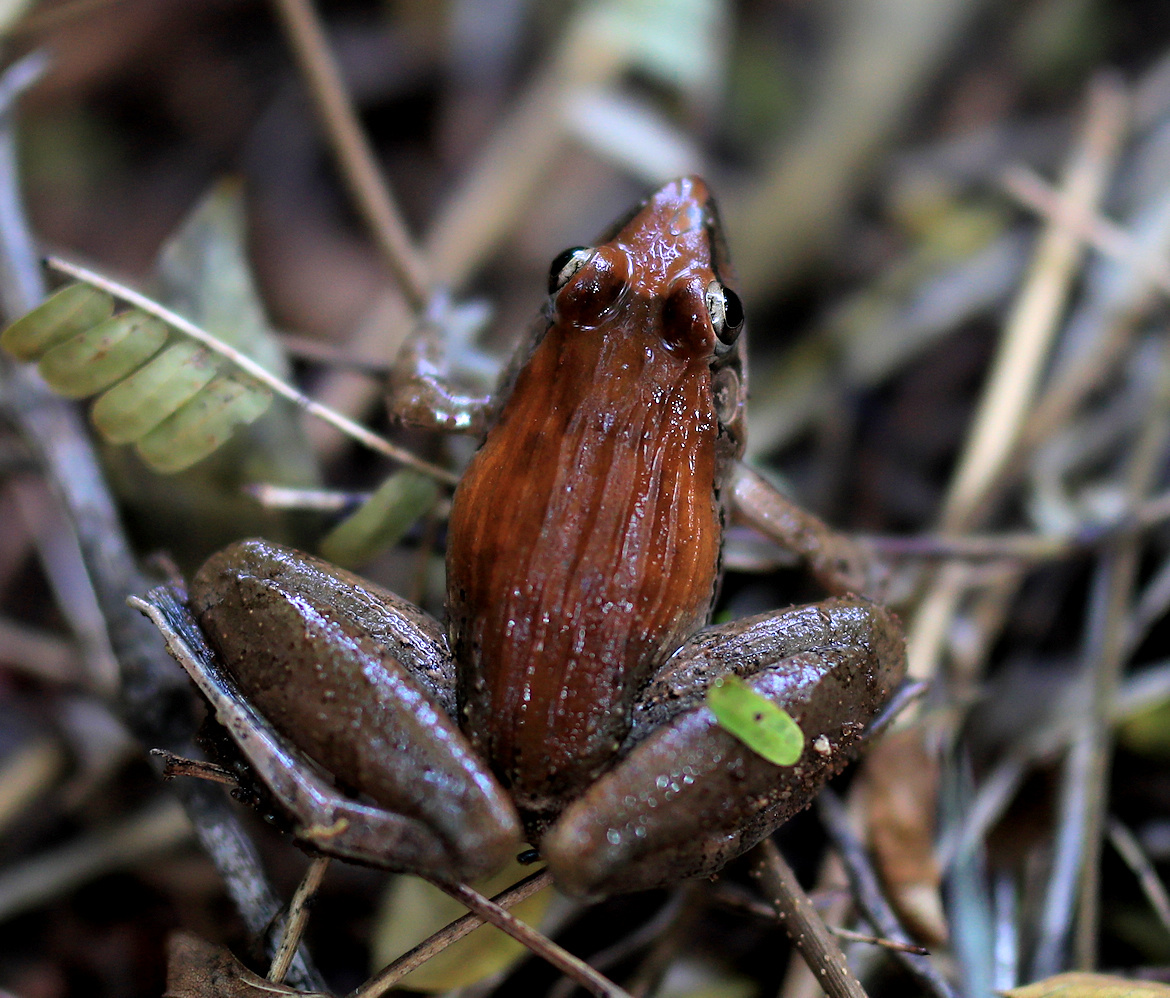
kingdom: Animalia
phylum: Chordata
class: Amphibia
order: Anura
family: Ptychadenidae
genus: Ptychadena
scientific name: Ptychadena anchietae
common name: Anchieta's ridged frog
